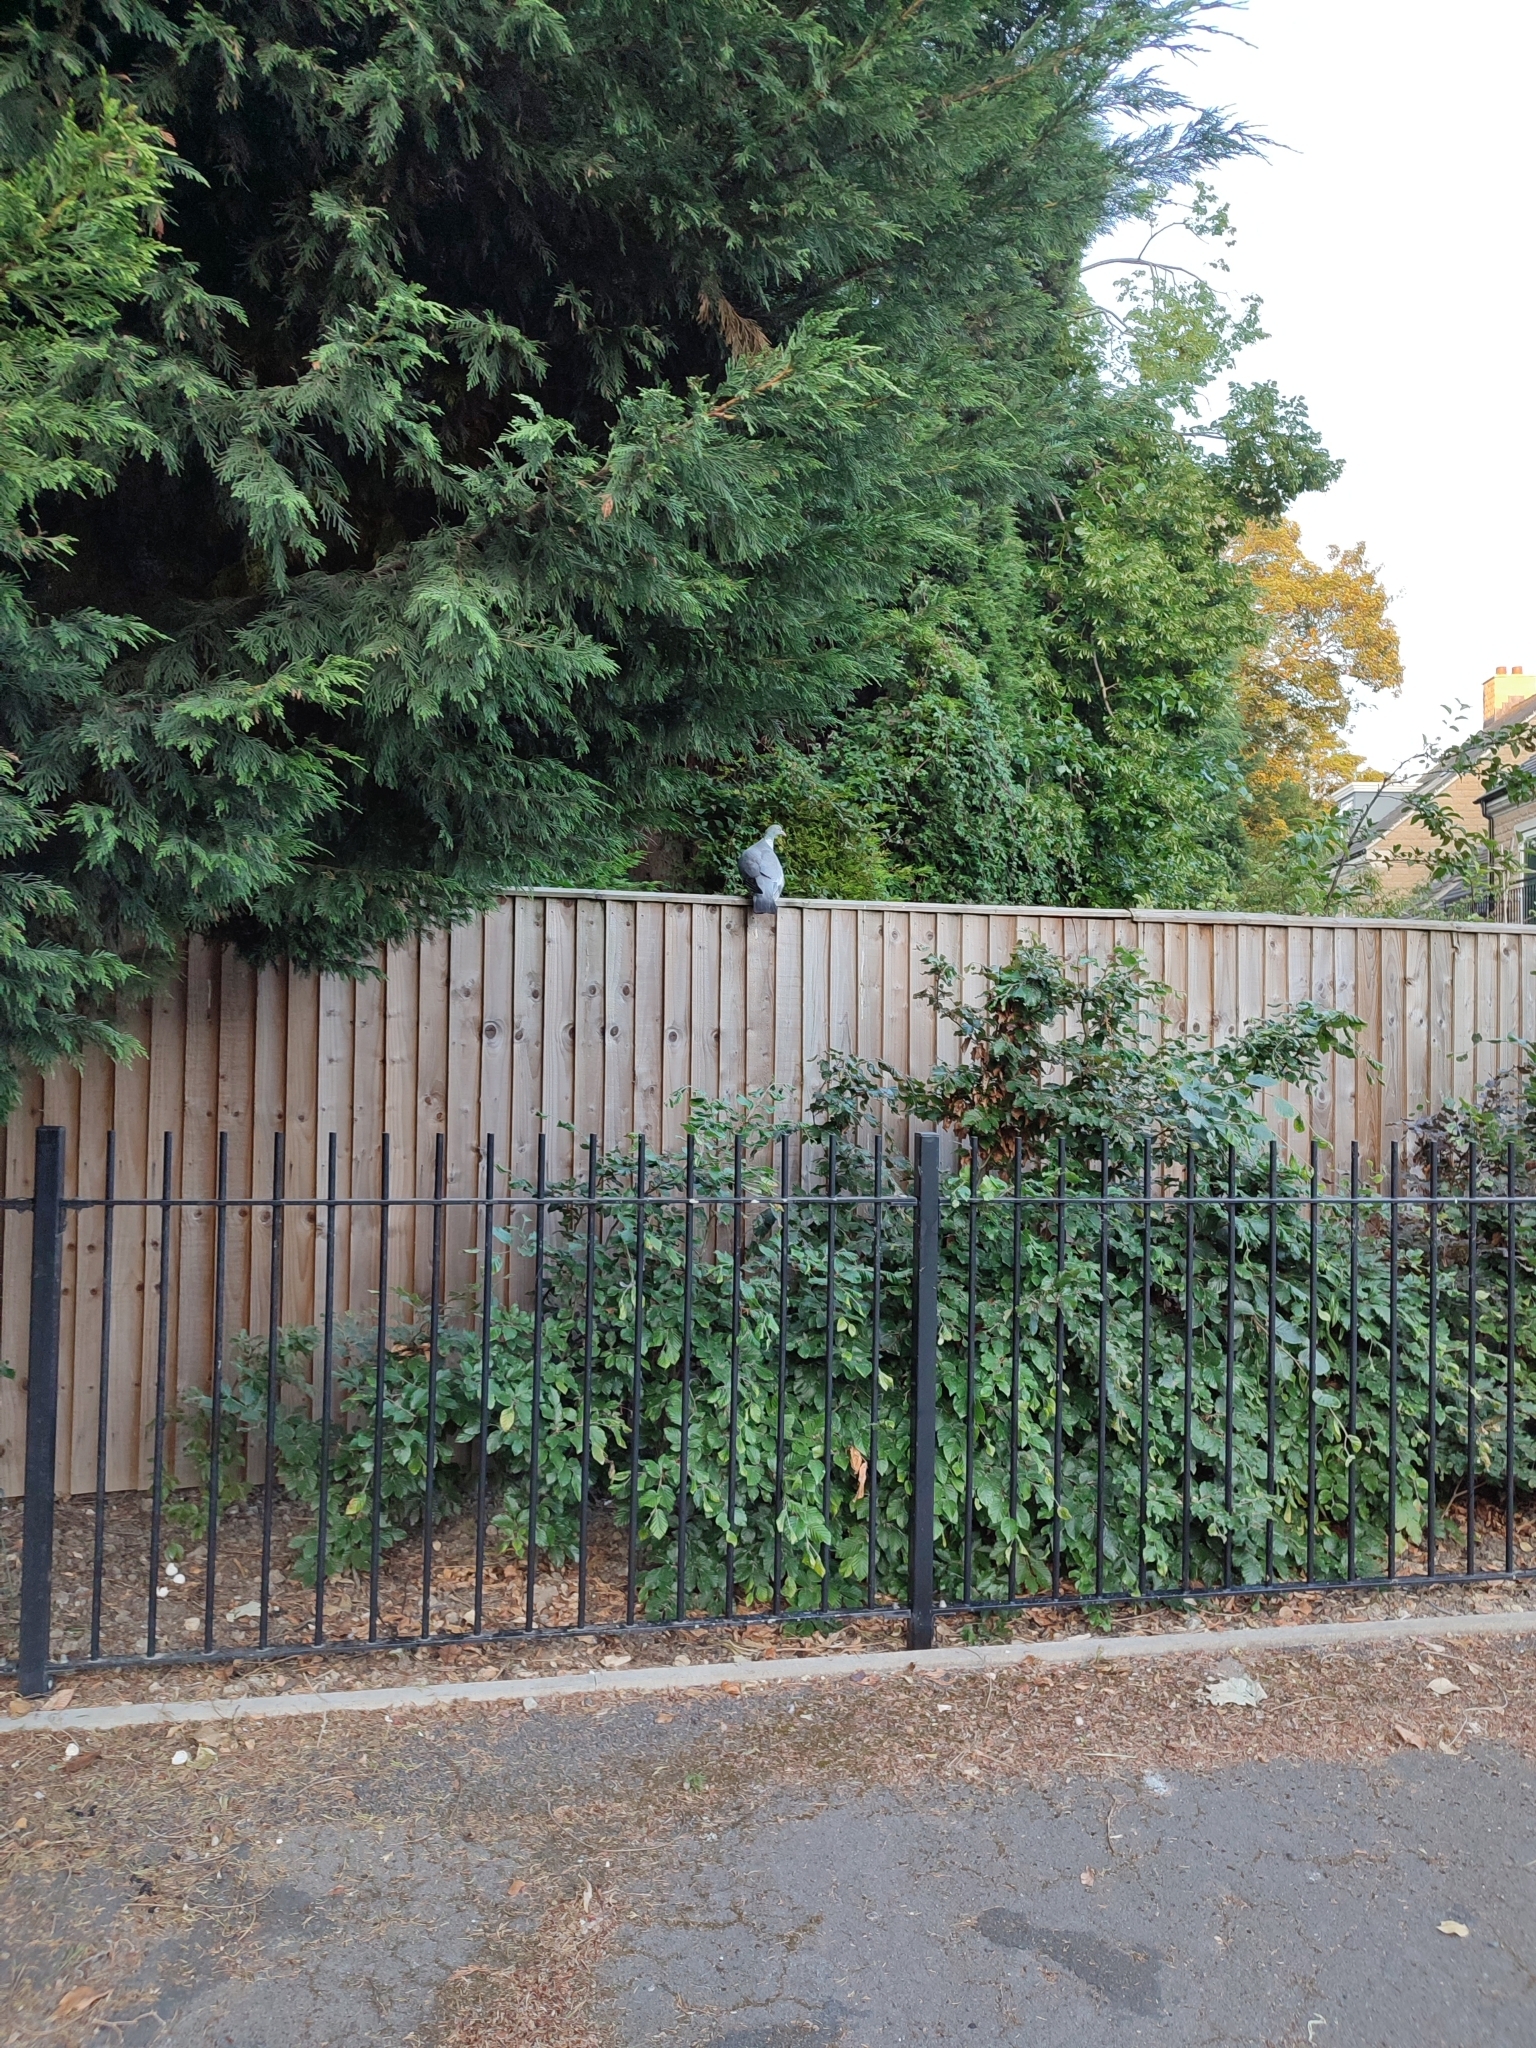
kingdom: Animalia
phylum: Chordata
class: Aves
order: Columbiformes
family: Columbidae
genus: Columba
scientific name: Columba palumbus
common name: Common wood pigeon
